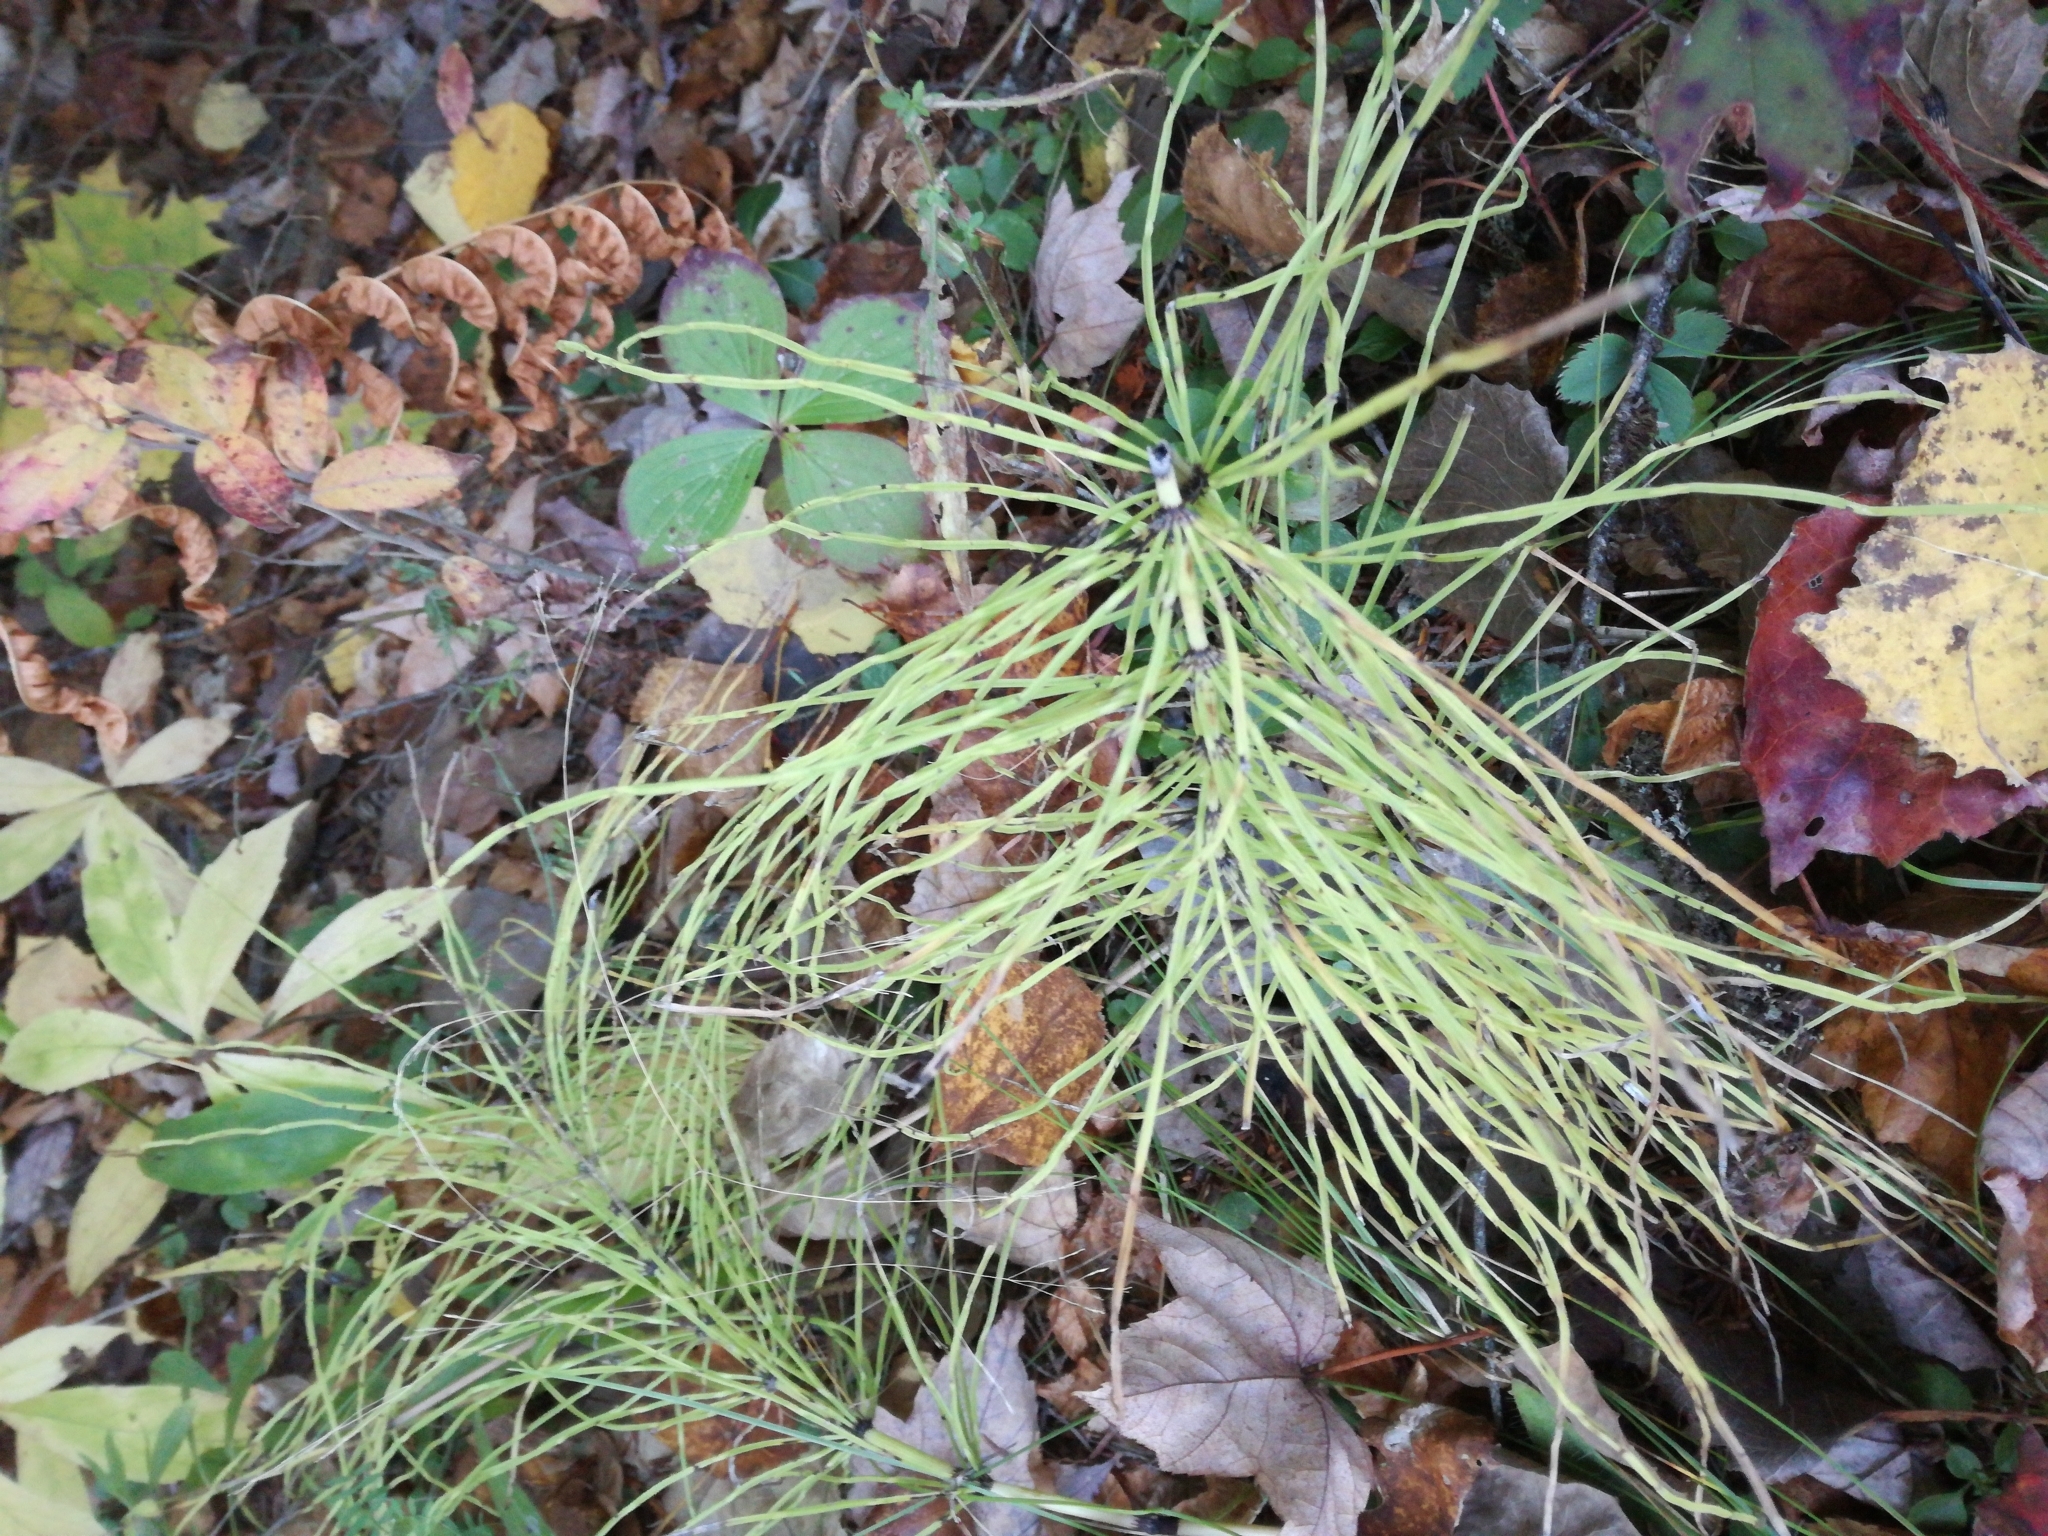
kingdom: Plantae
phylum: Tracheophyta
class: Polypodiopsida
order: Equisetales
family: Equisetaceae
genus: Equisetum
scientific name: Equisetum arvense
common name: Field horsetail
